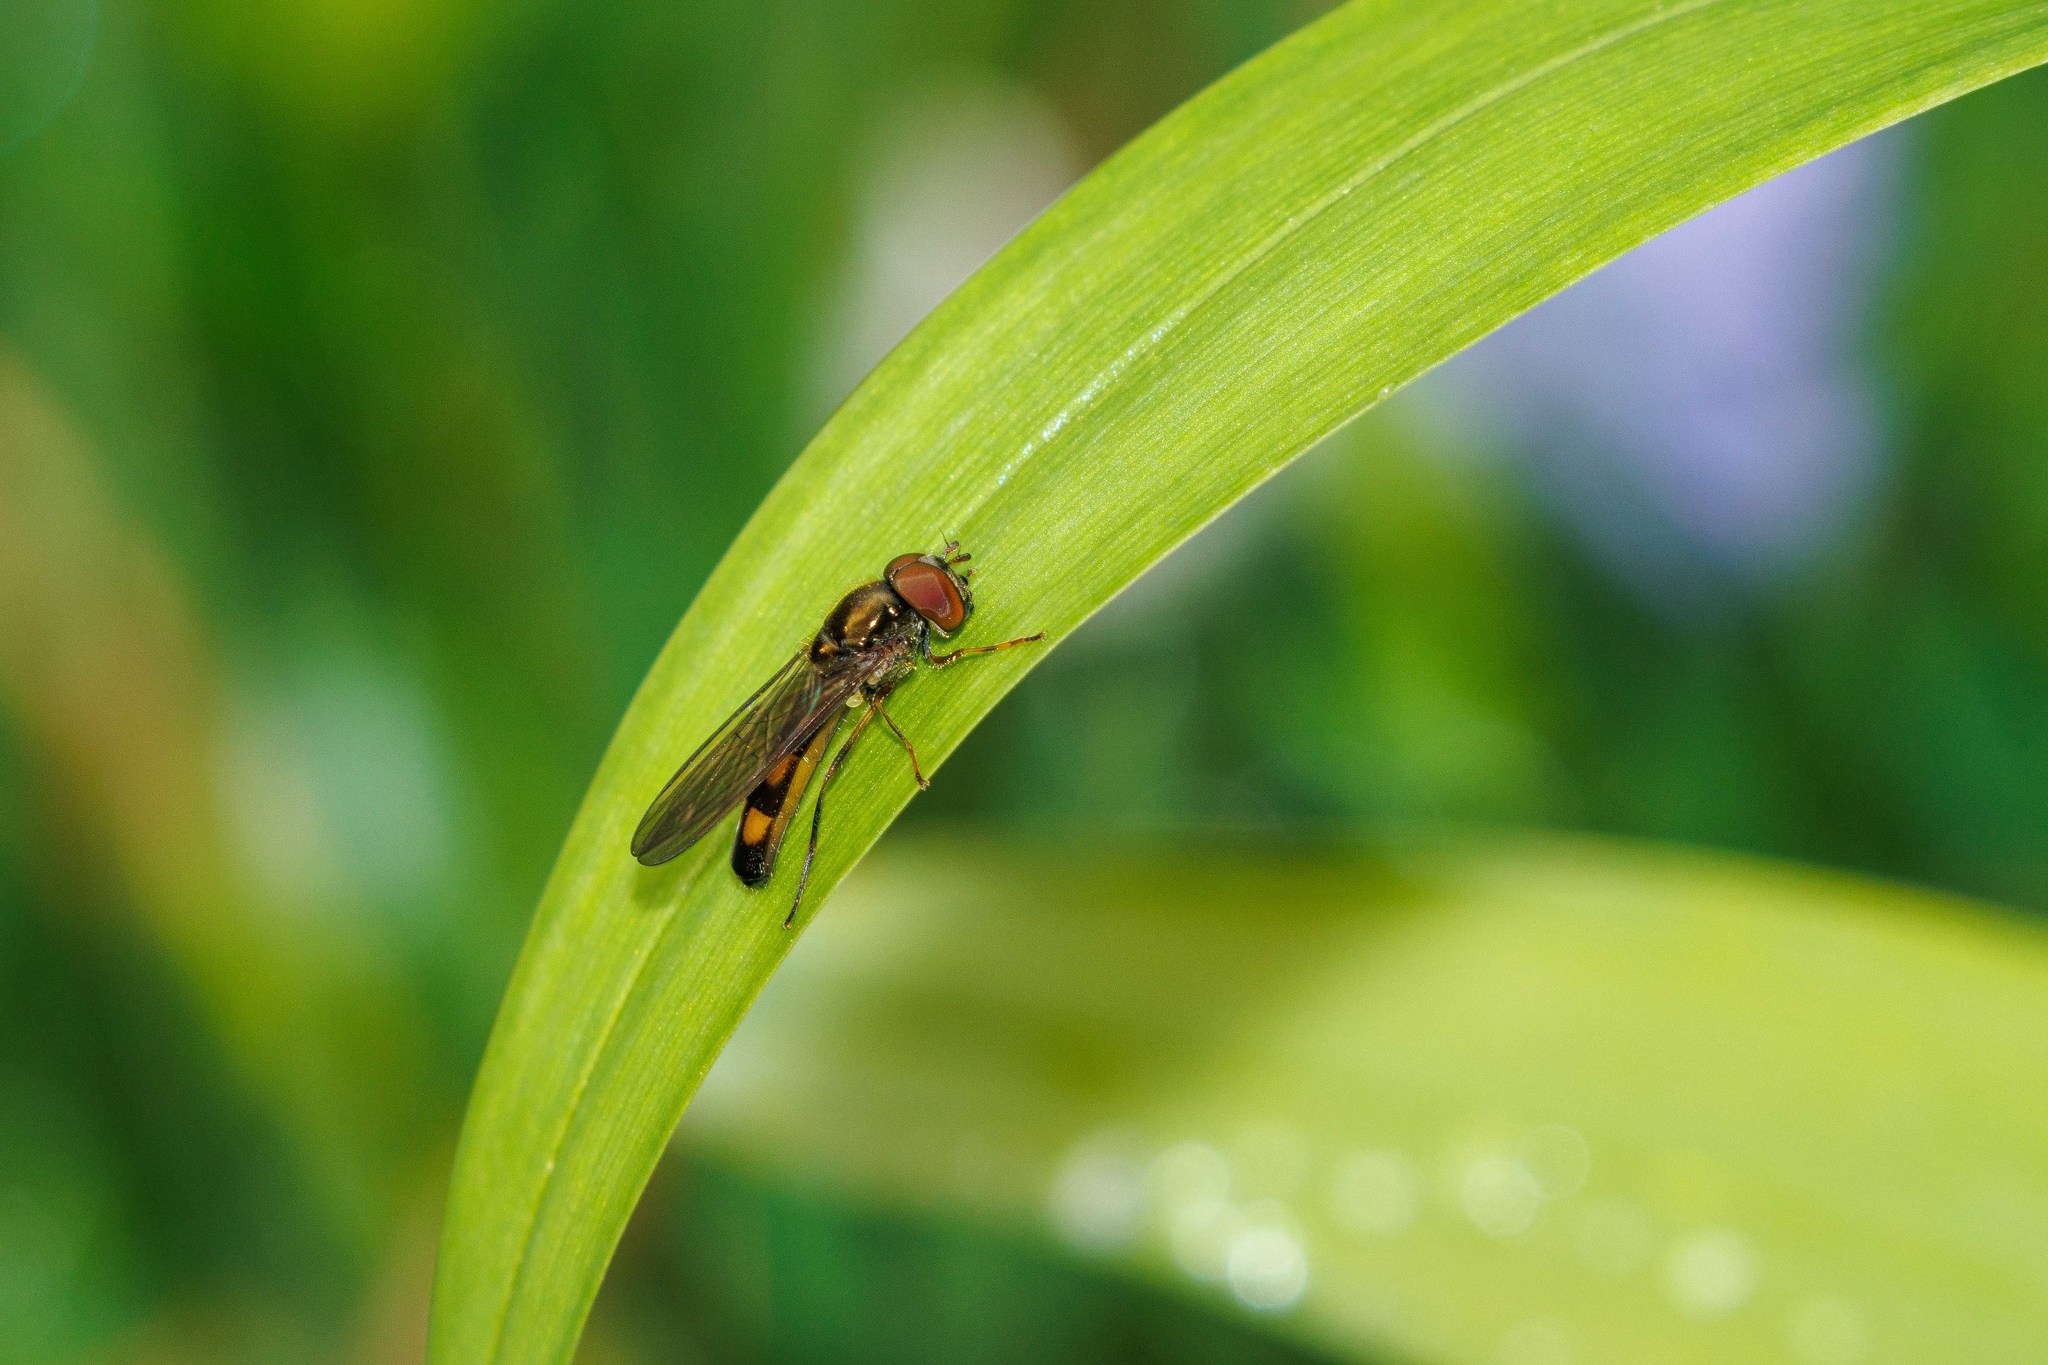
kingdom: Animalia
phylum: Arthropoda
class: Insecta
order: Diptera
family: Syrphidae
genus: Melanostoma
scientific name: Melanostoma mellina
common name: Hover fly
